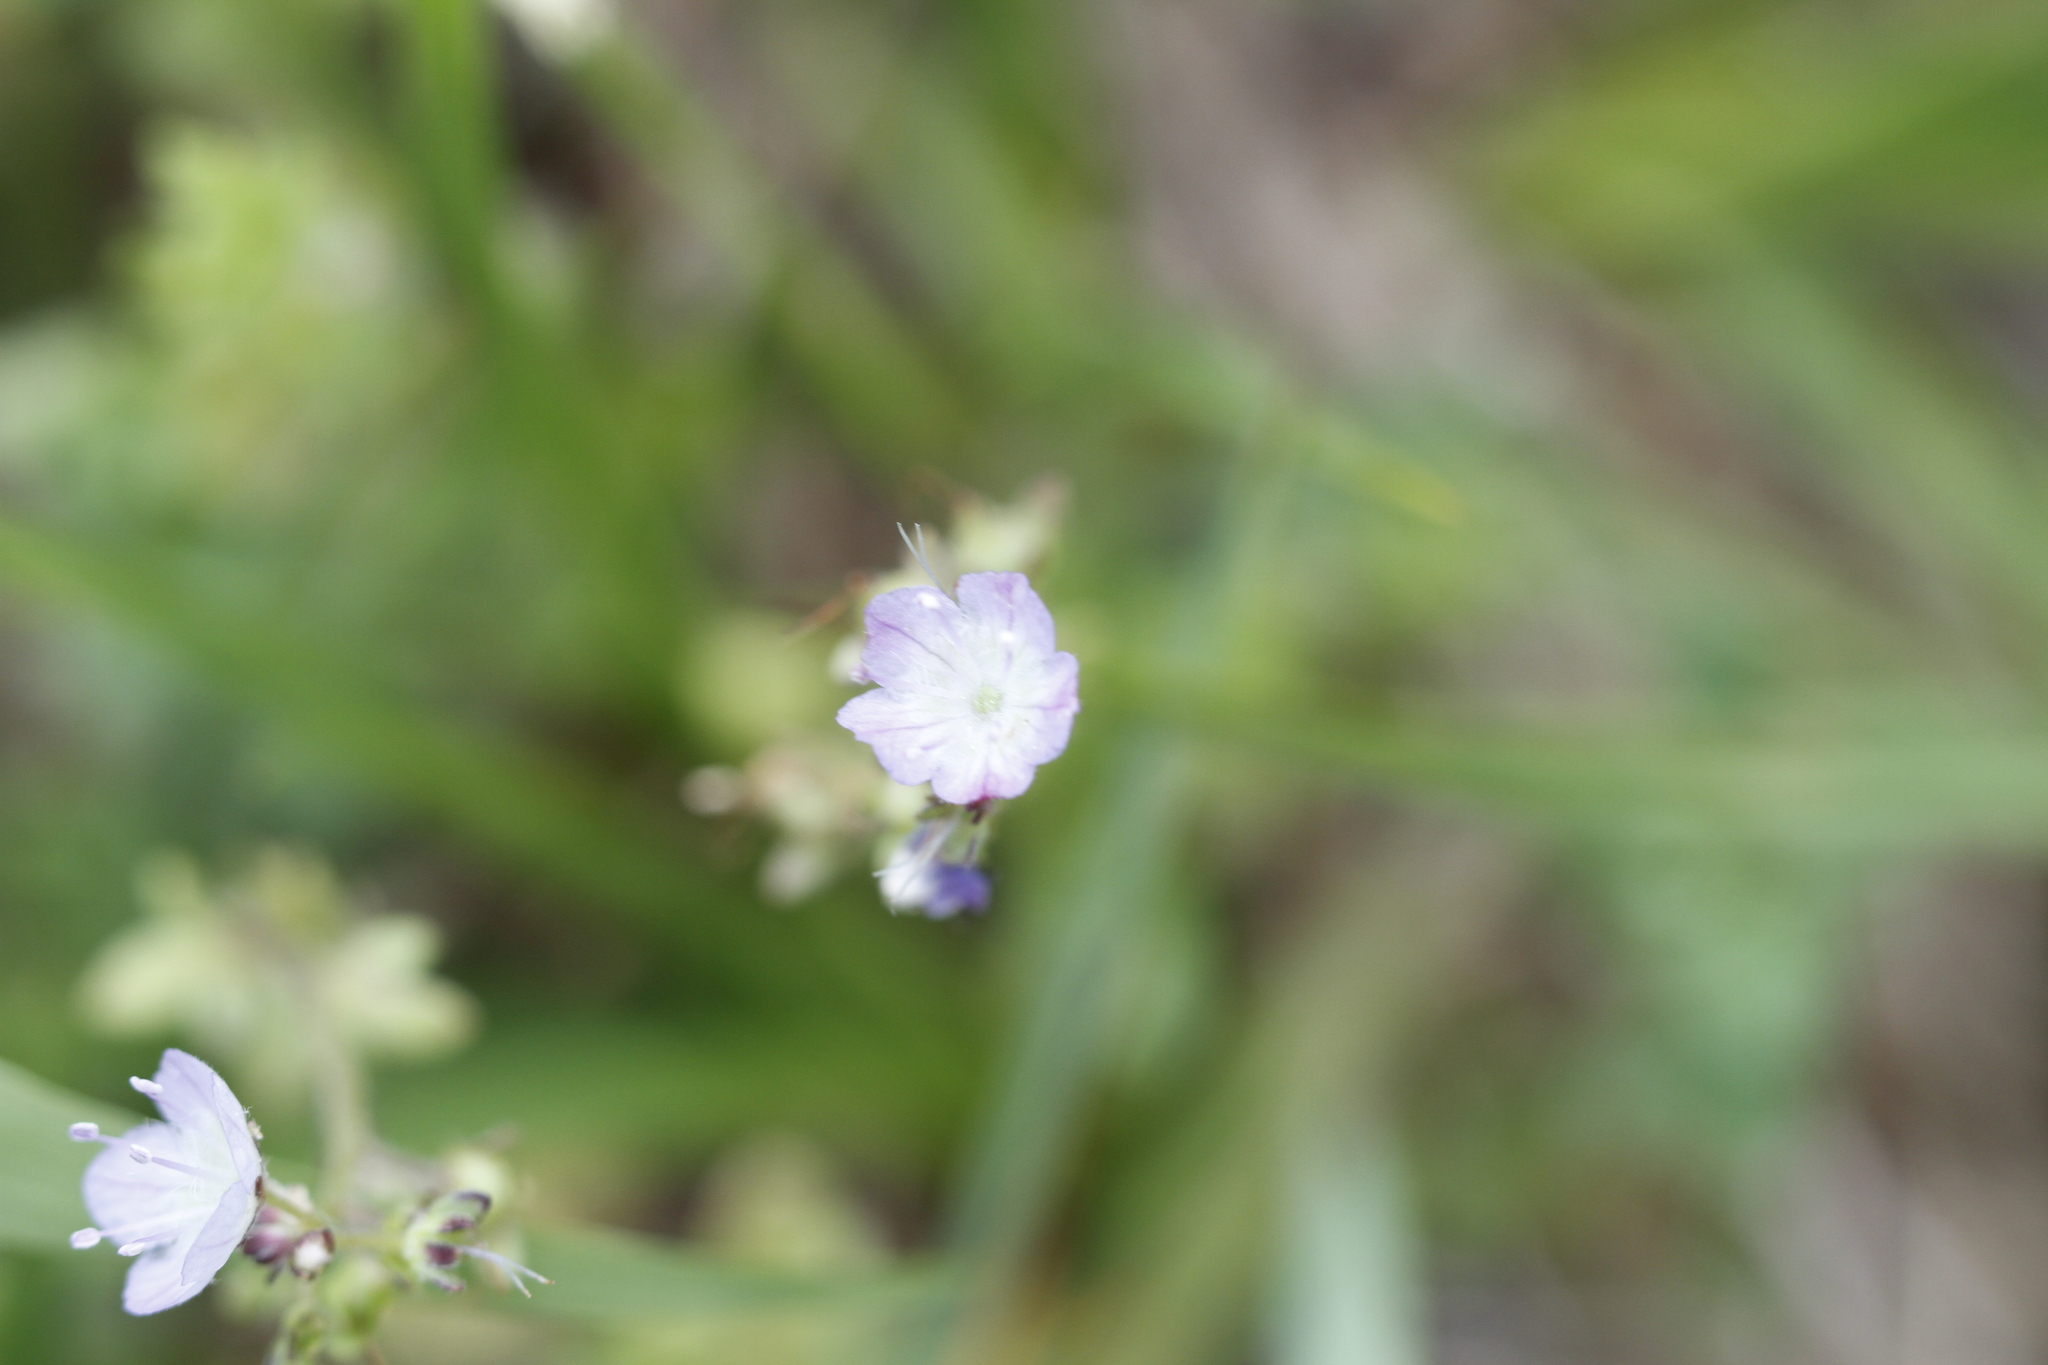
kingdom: Plantae
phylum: Tracheophyta
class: Magnoliopsida
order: Boraginales
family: Hydrophyllaceae
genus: Phacelia
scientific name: Phacelia dubia
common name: Appalachian phacelia
